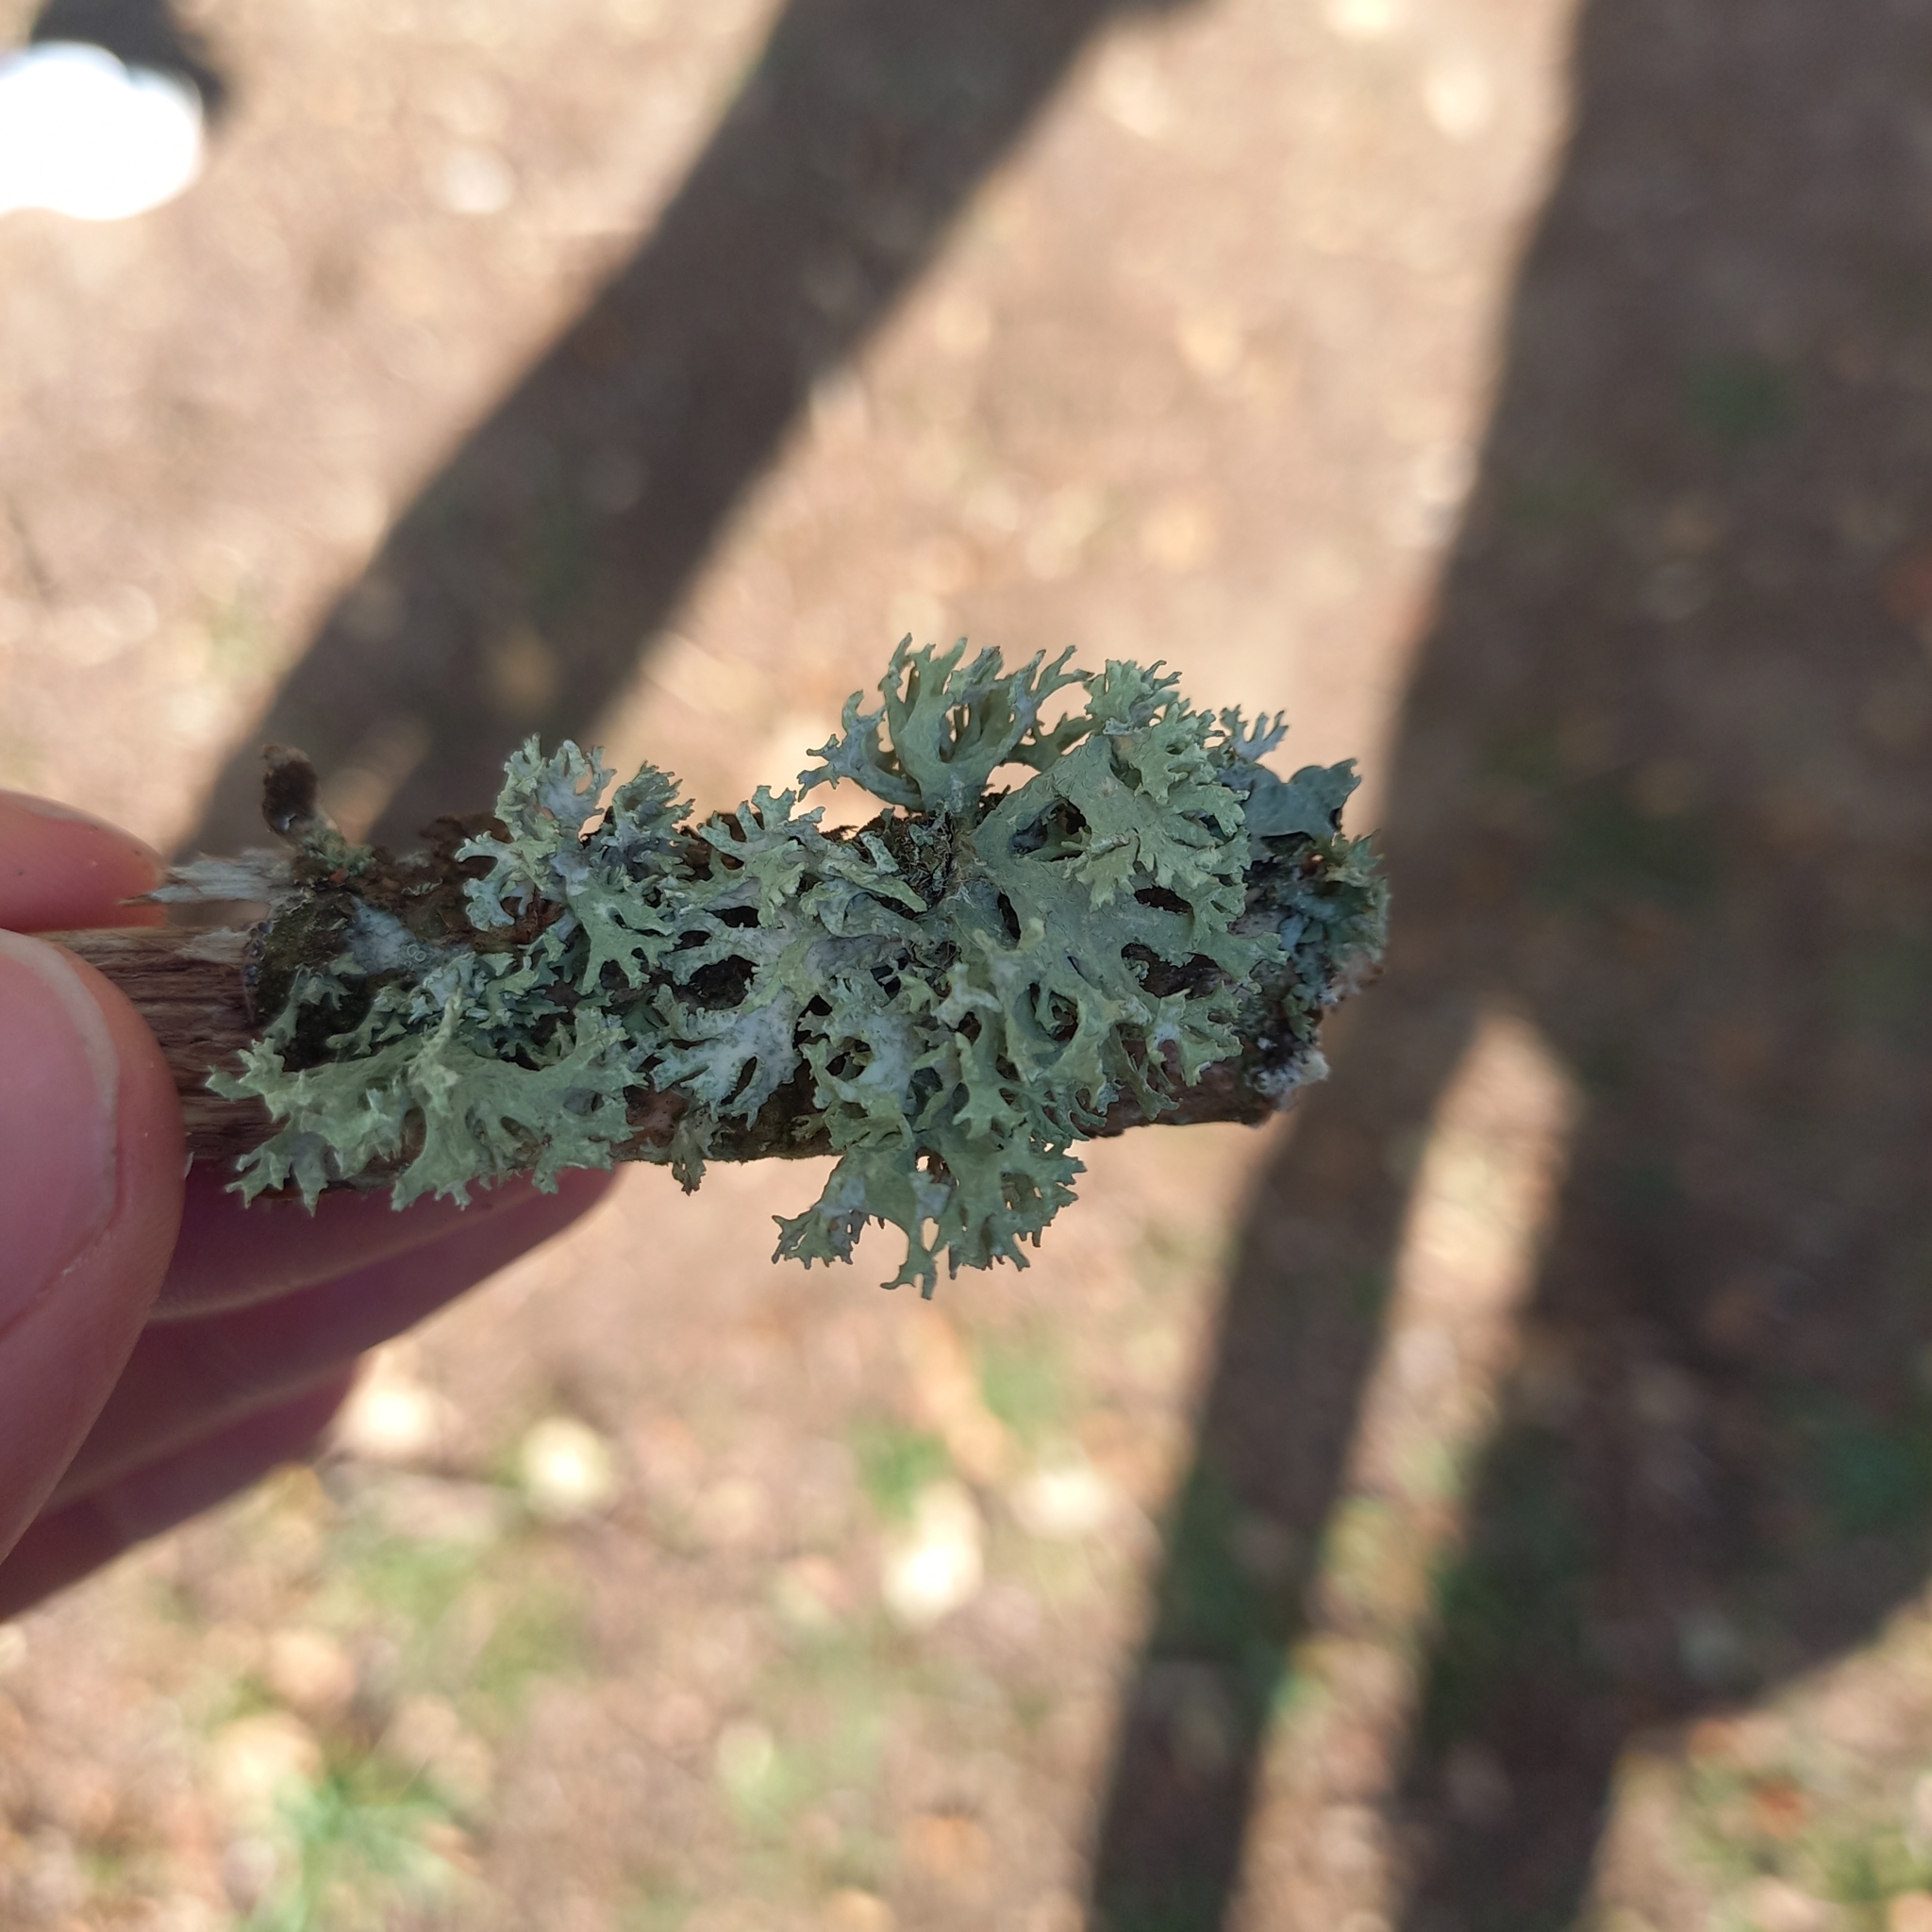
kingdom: Fungi
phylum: Ascomycota
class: Lecanoromycetes
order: Lecanorales
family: Parmeliaceae
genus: Evernia
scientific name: Evernia prunastri
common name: Oak moss
